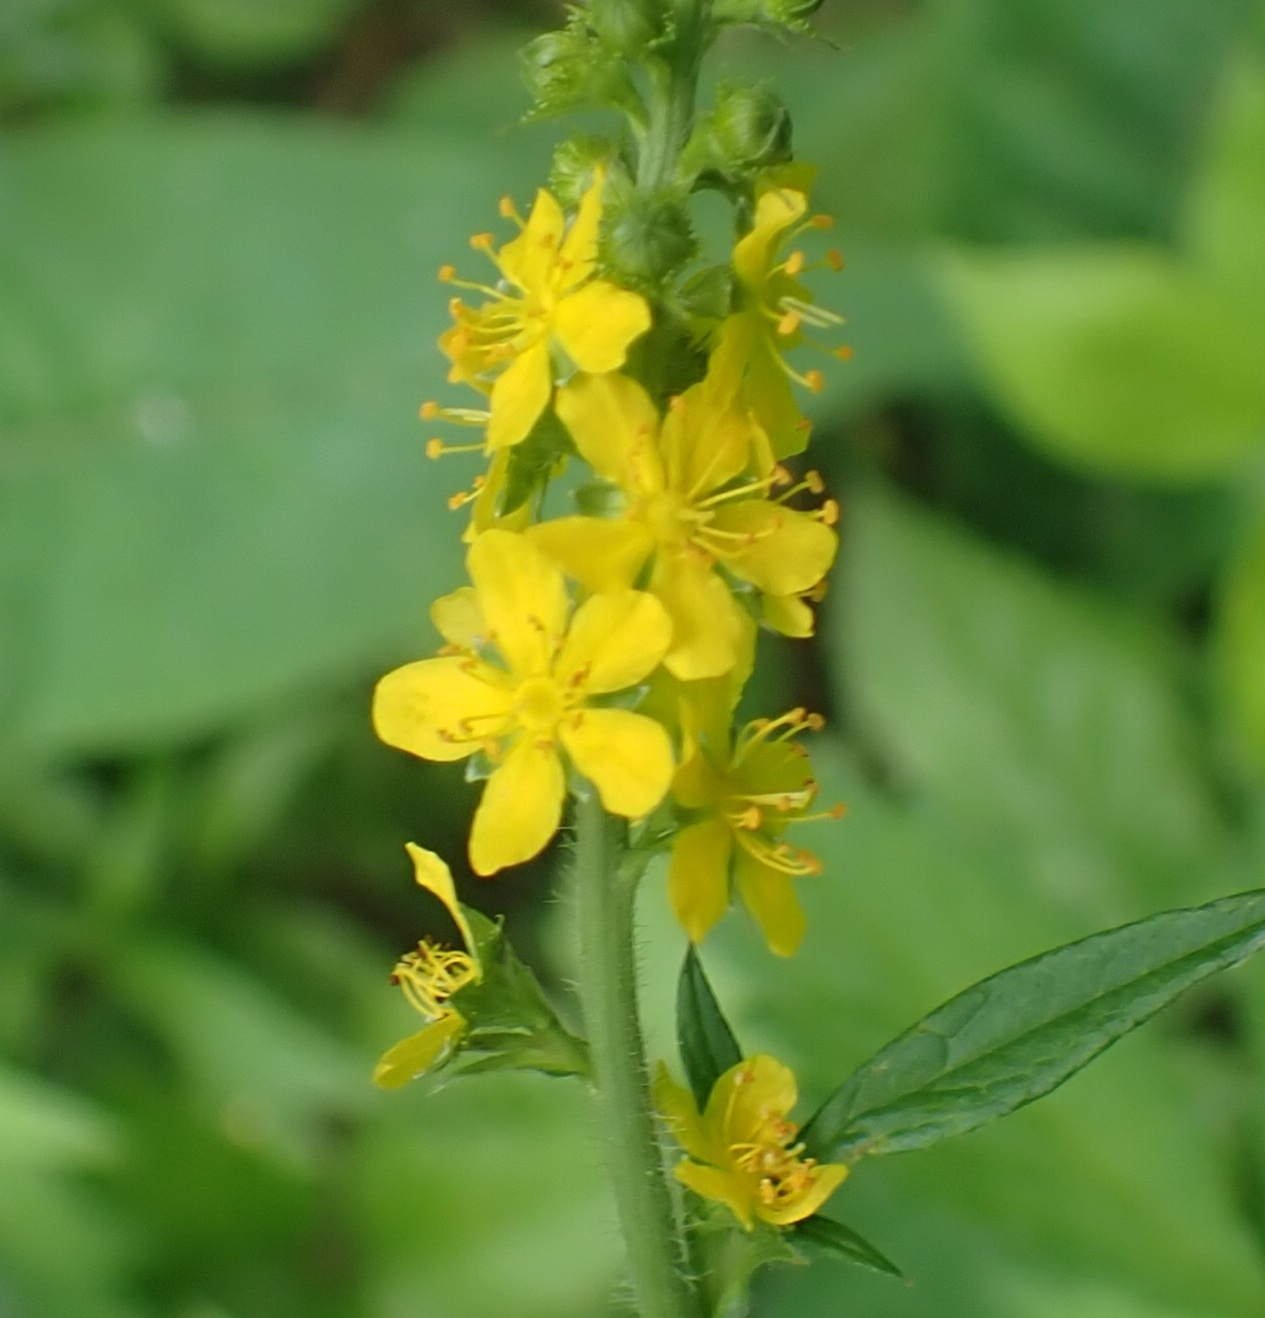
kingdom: Plantae
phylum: Tracheophyta
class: Magnoliopsida
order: Rosales
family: Rosaceae
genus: Agrimonia
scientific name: Agrimonia pilosa
